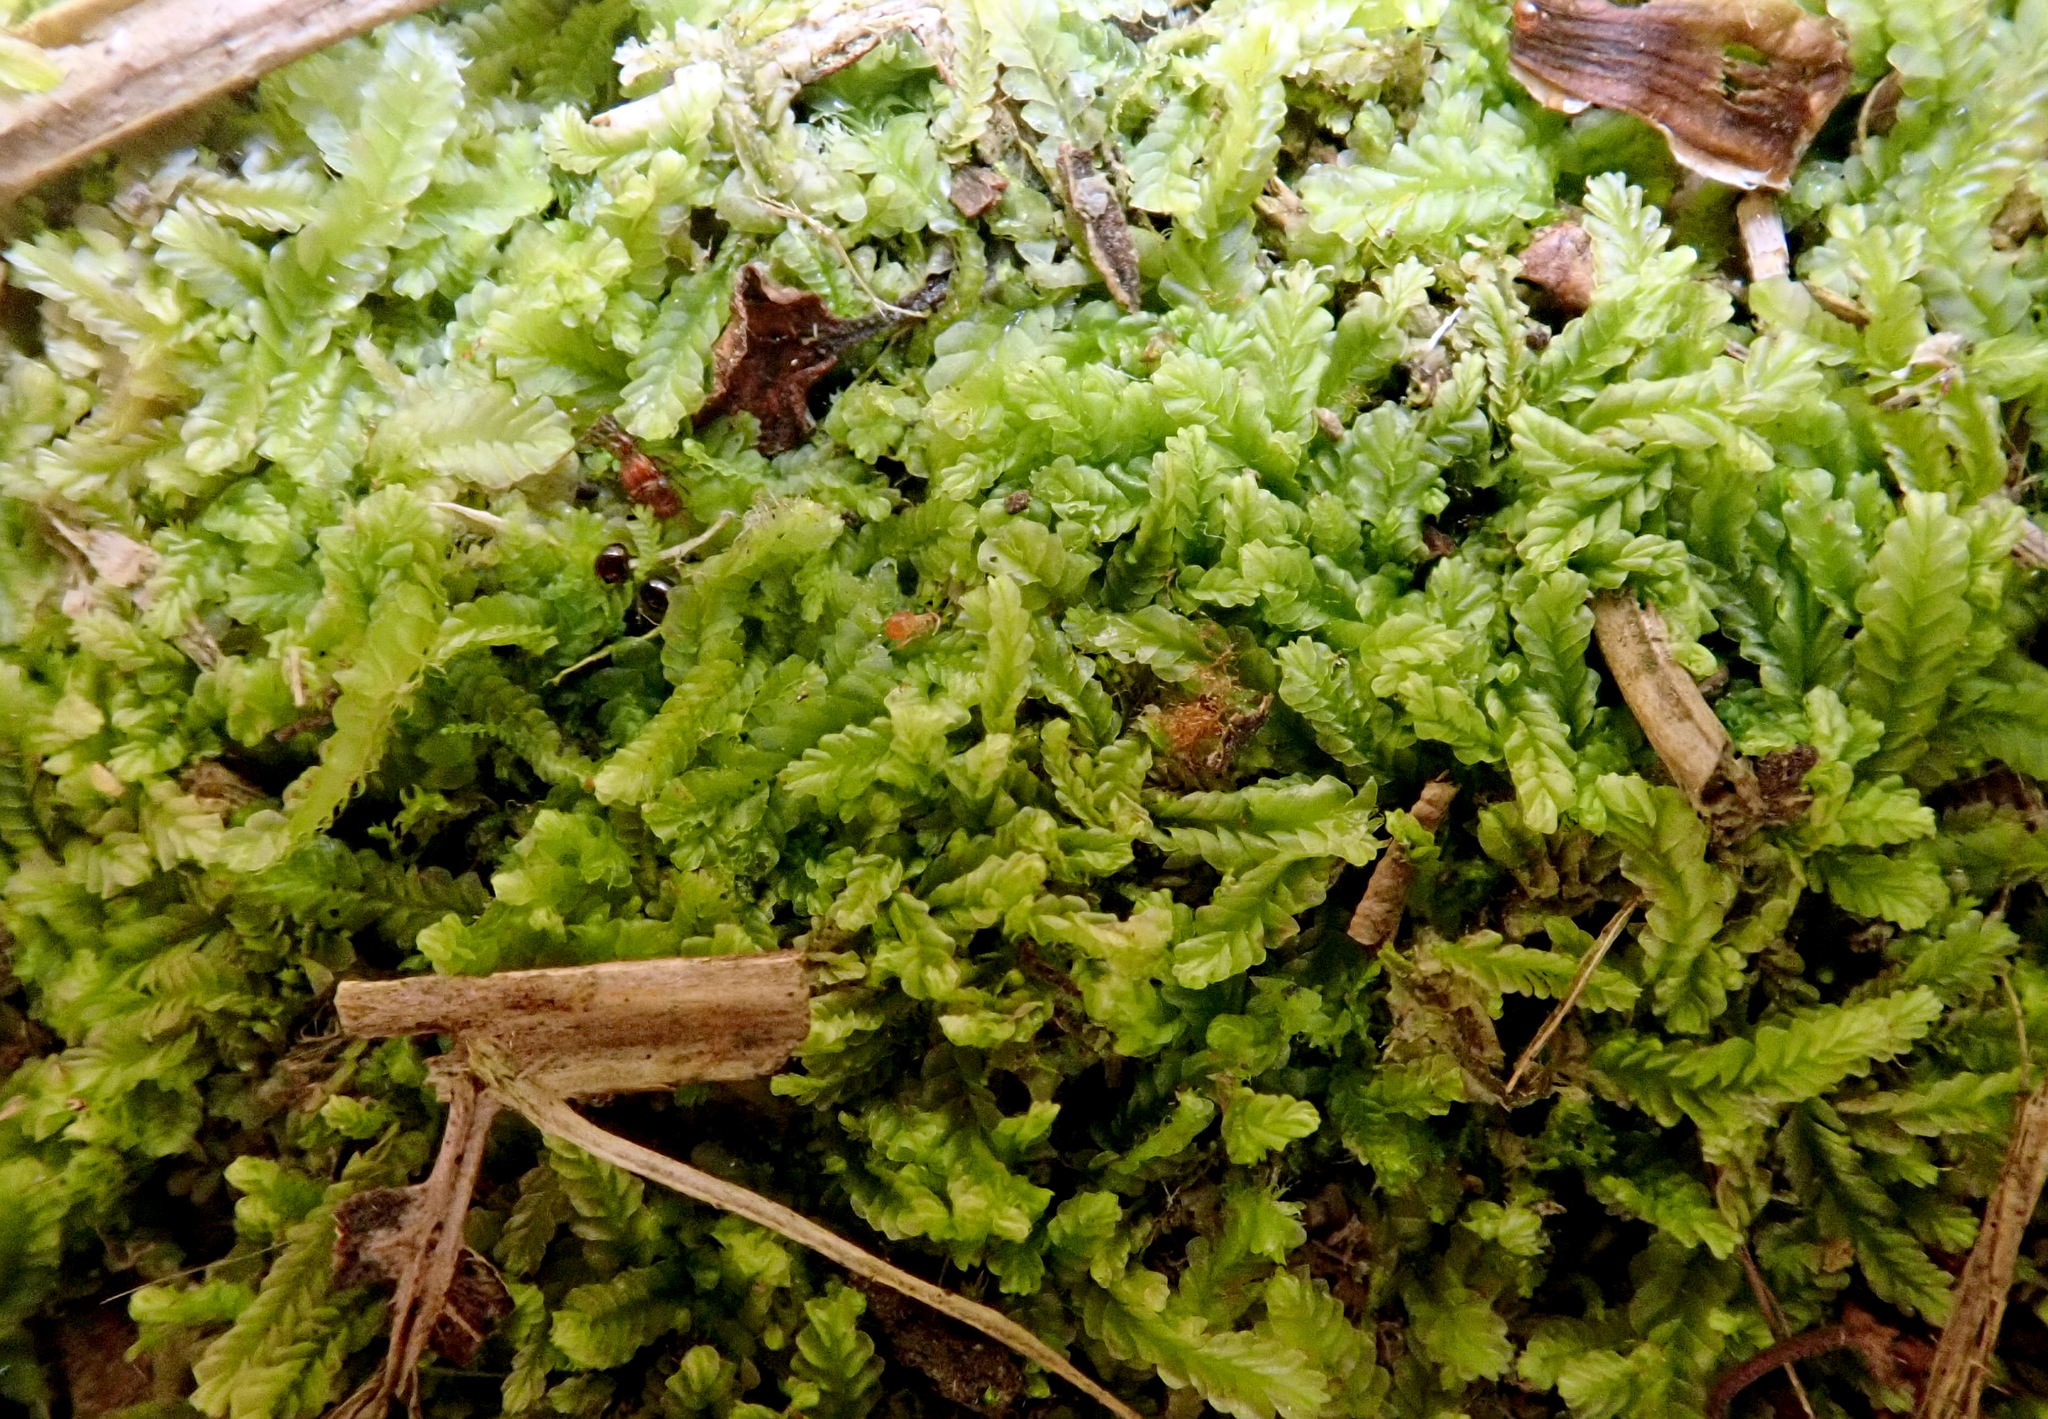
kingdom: Plantae
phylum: Marchantiophyta
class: Jungermanniopsida
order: Jungermanniales
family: Lophocoleaceae
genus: Lophocolea
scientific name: Lophocolea semiteres
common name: Southern crestwort
